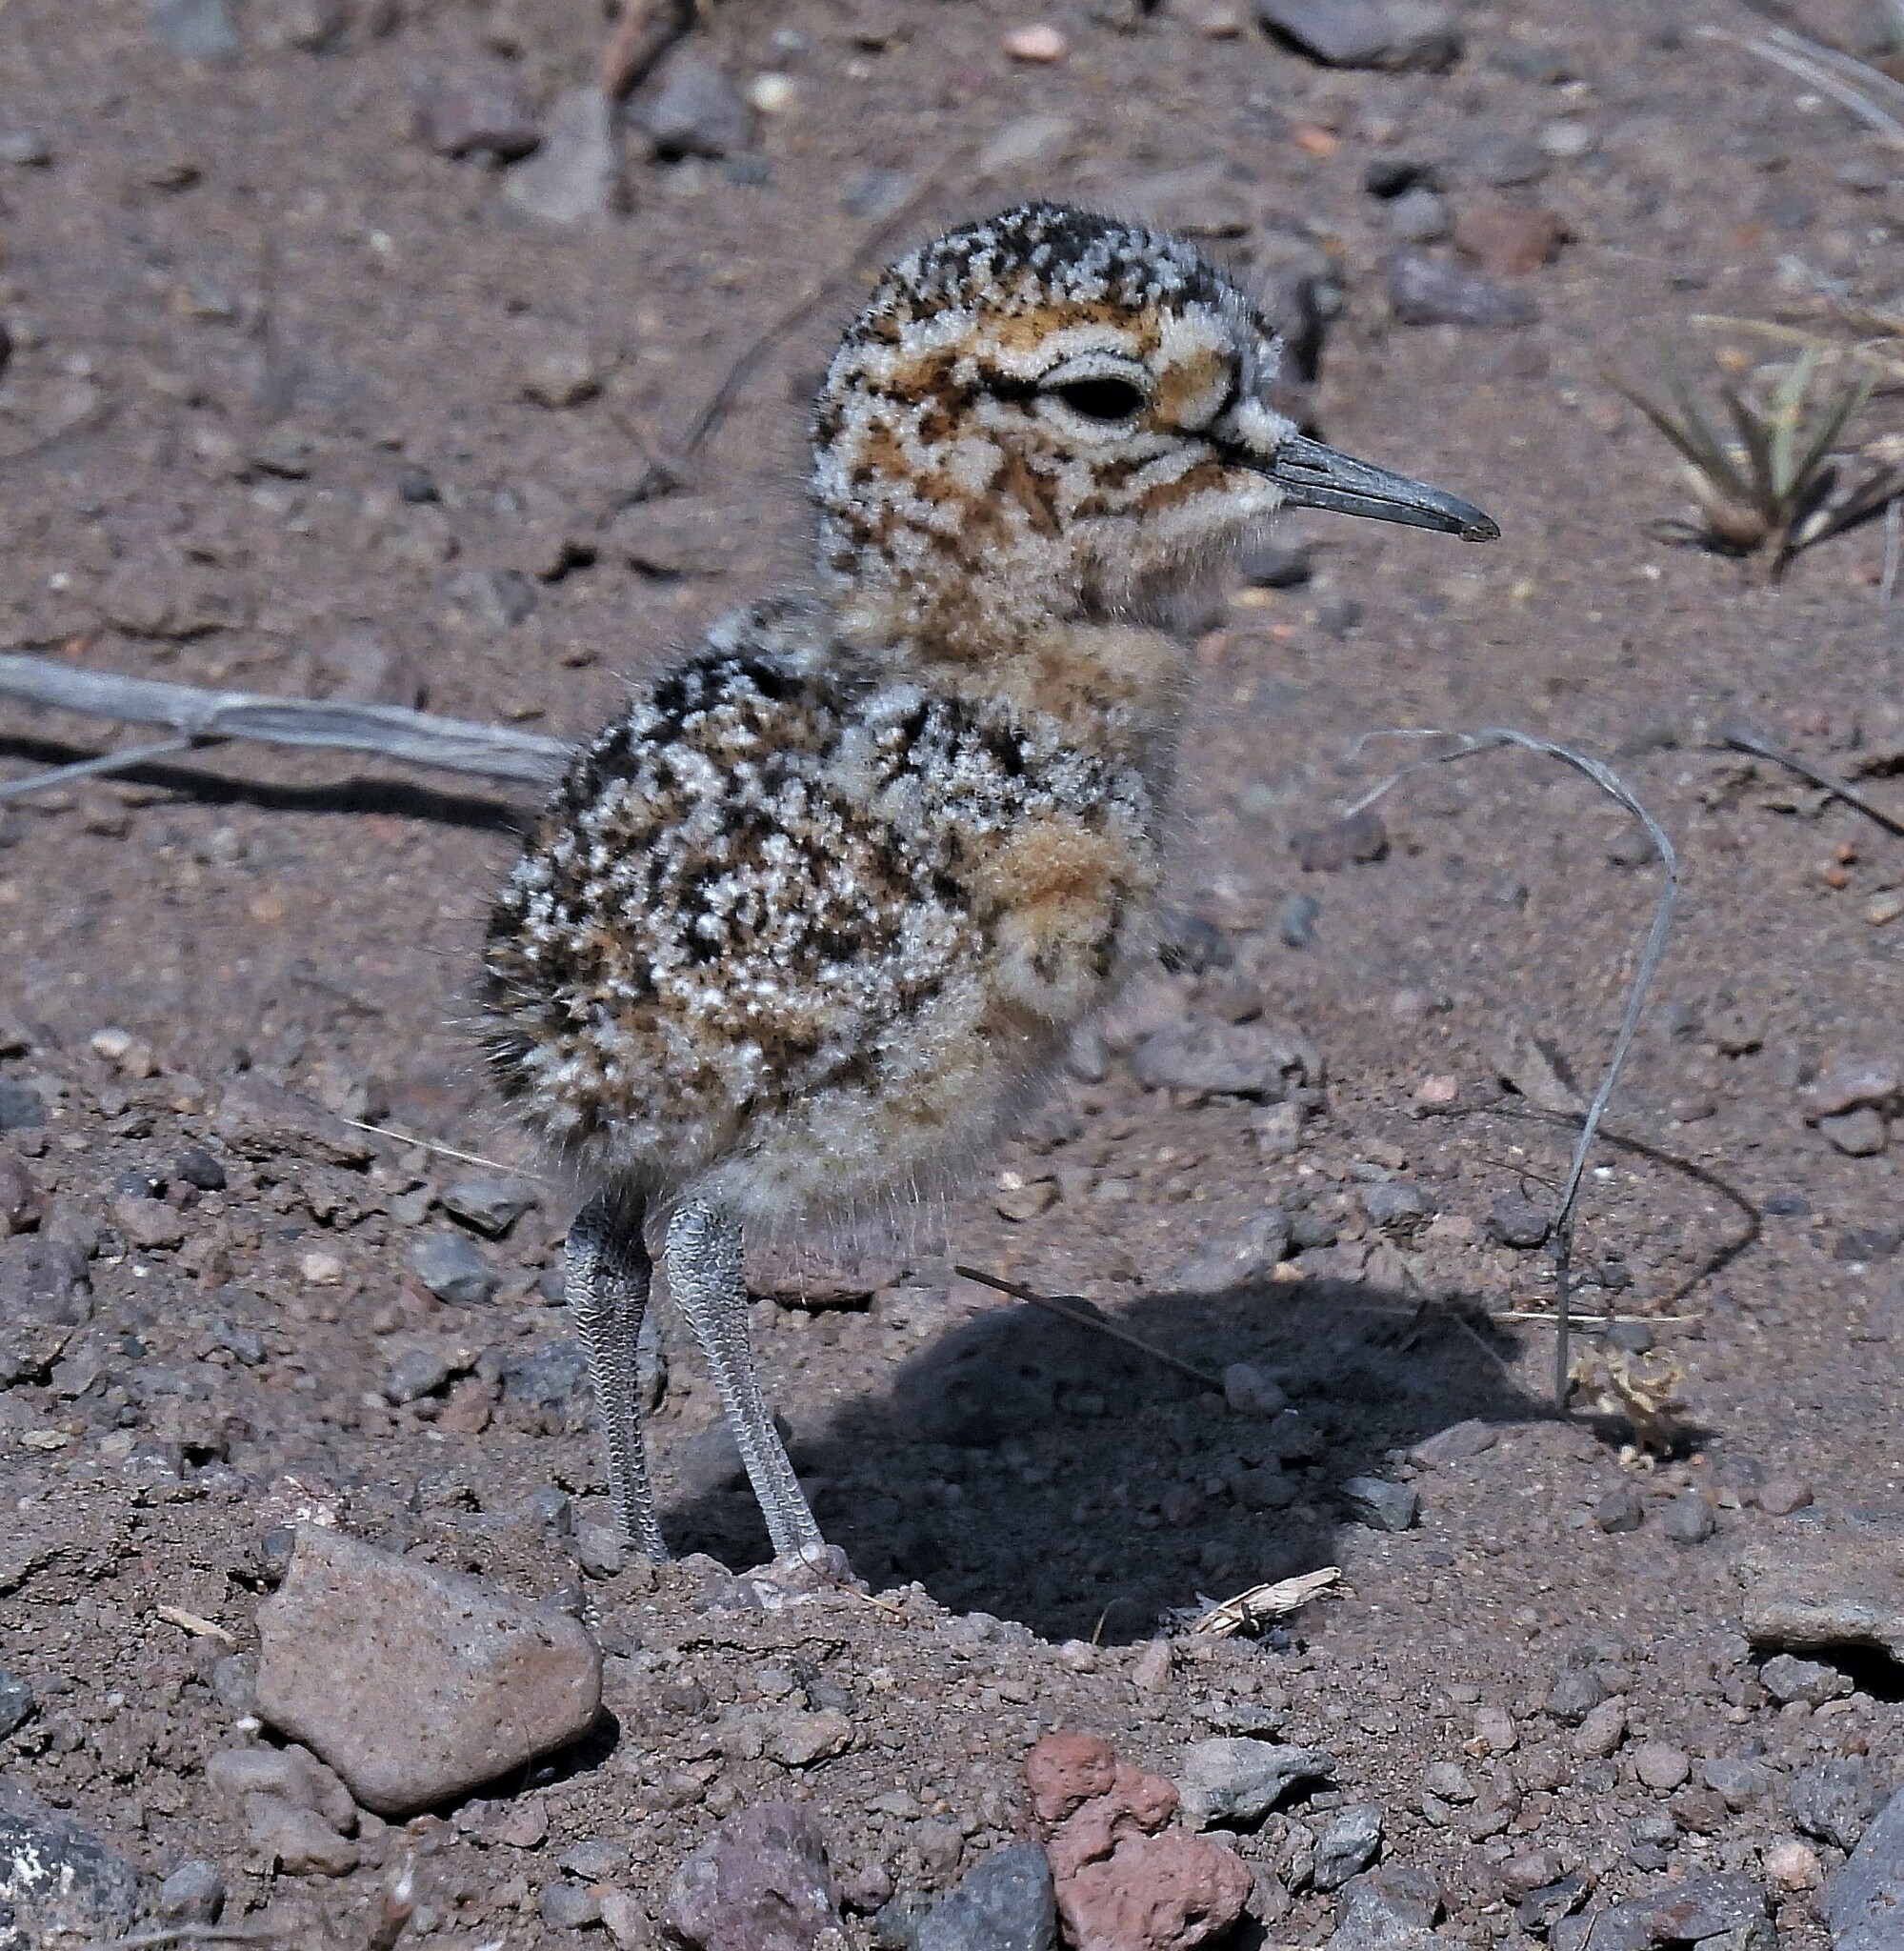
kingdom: Animalia
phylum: Chordata
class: Aves
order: Charadriiformes
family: Charadriidae
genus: Oreopholus
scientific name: Oreopholus ruficollis
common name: Tawny-throated dotterel
